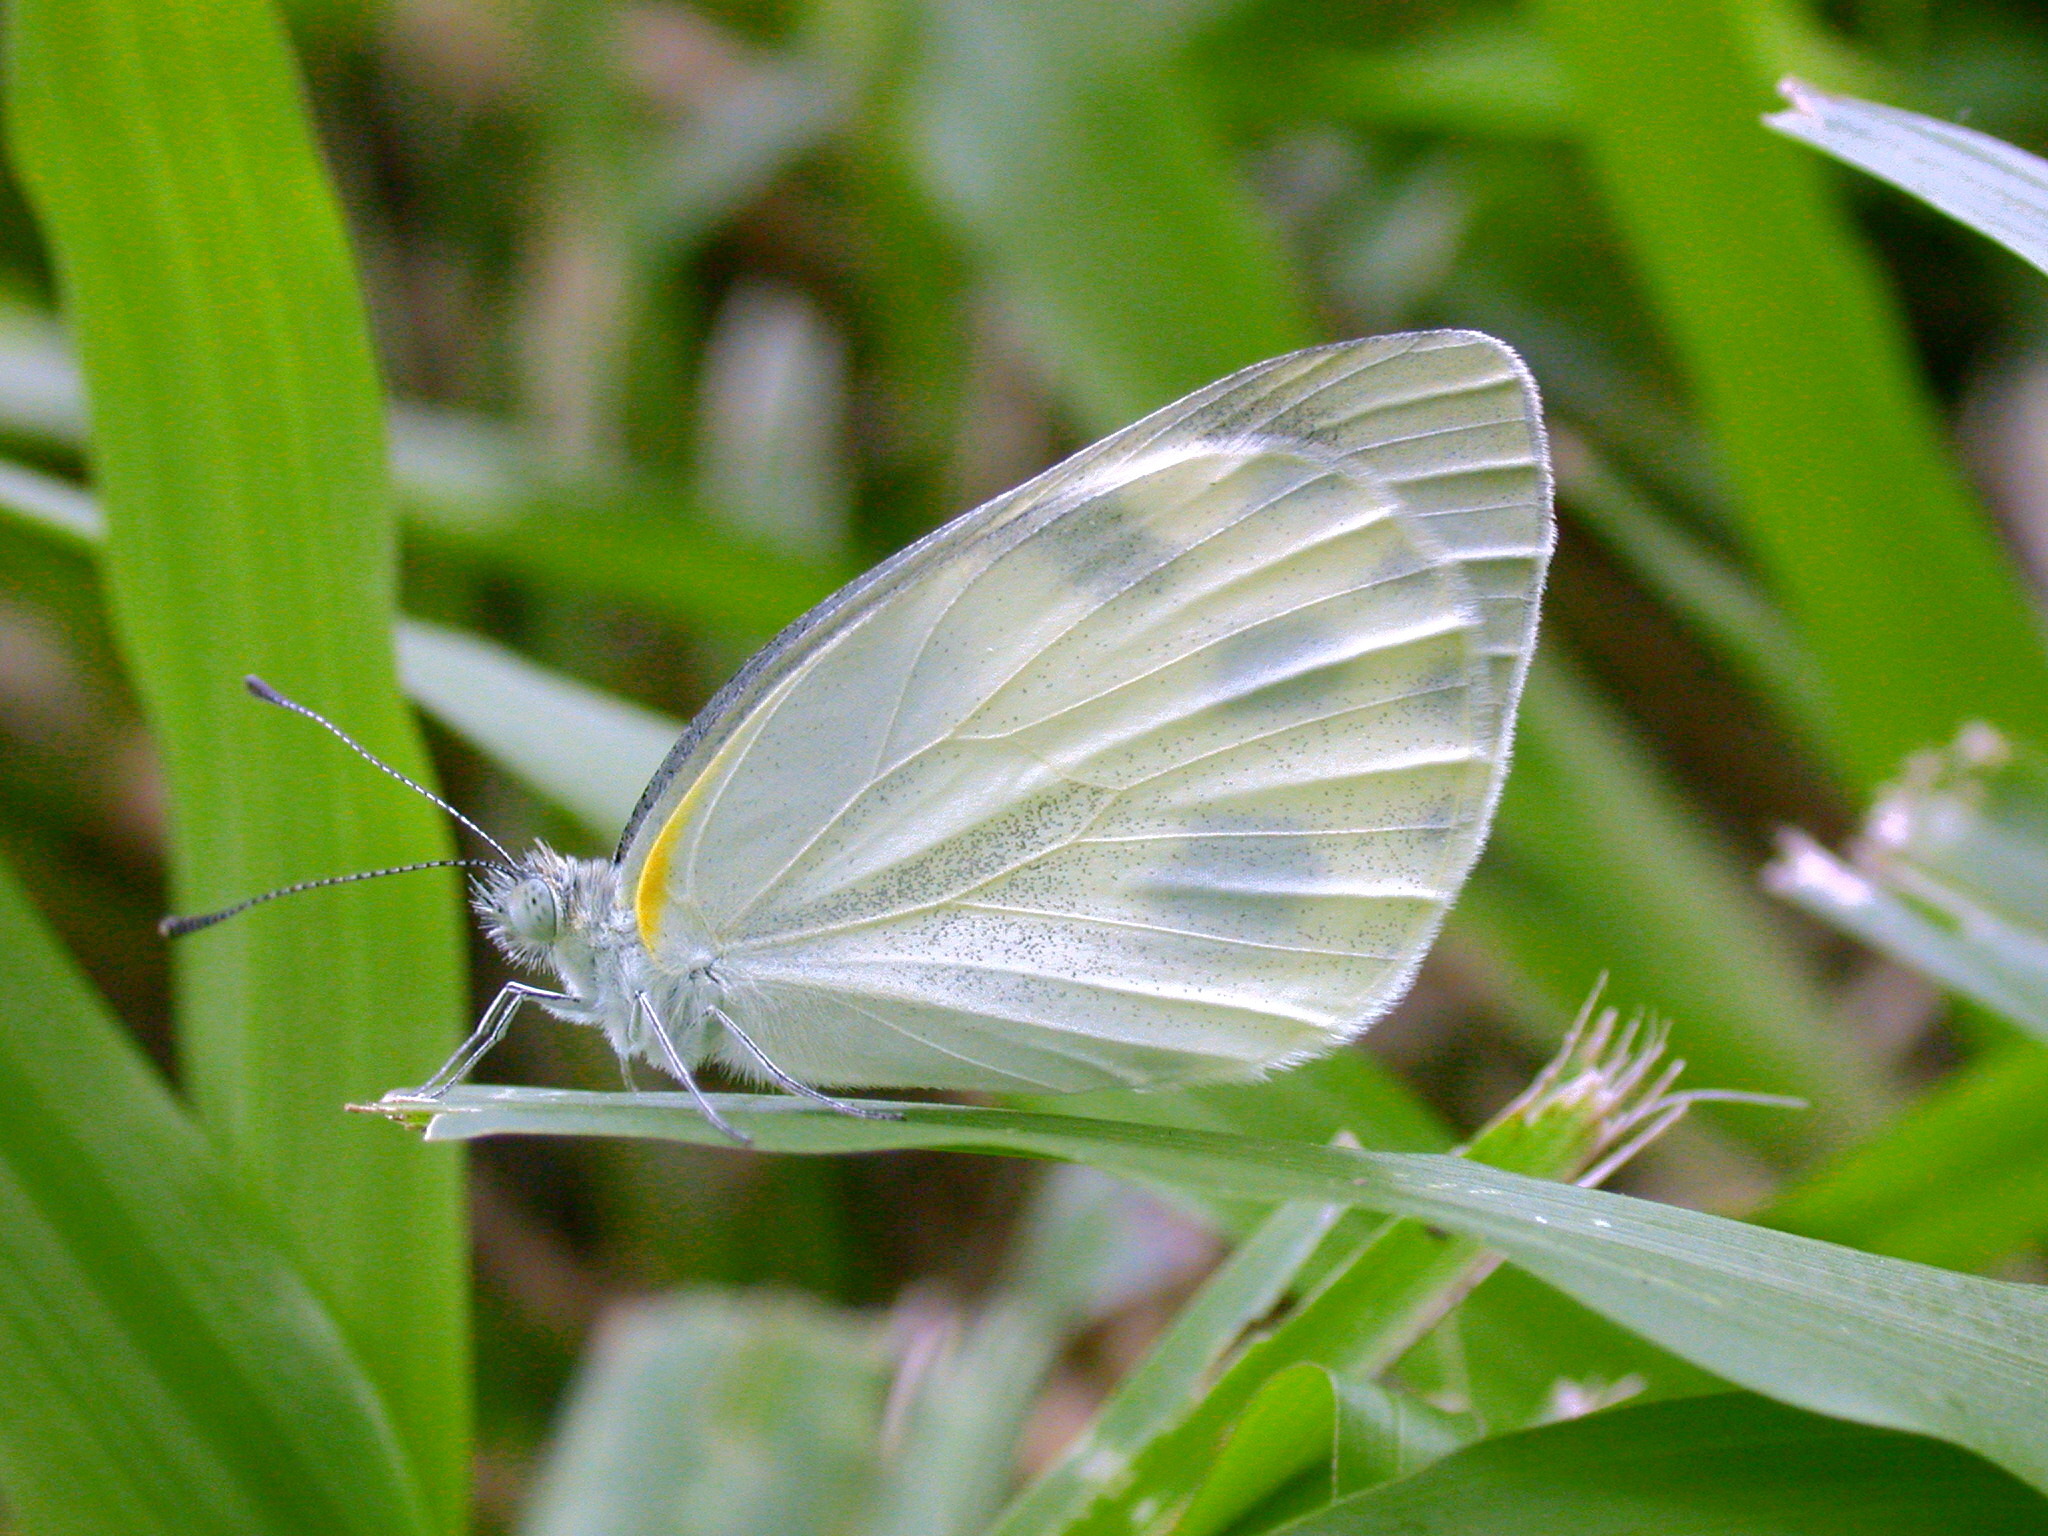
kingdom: Animalia
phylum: Arthropoda
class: Insecta
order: Lepidoptera
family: Pieridae
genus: Pieris
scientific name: Pieris canidia
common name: Indian cabbage white
